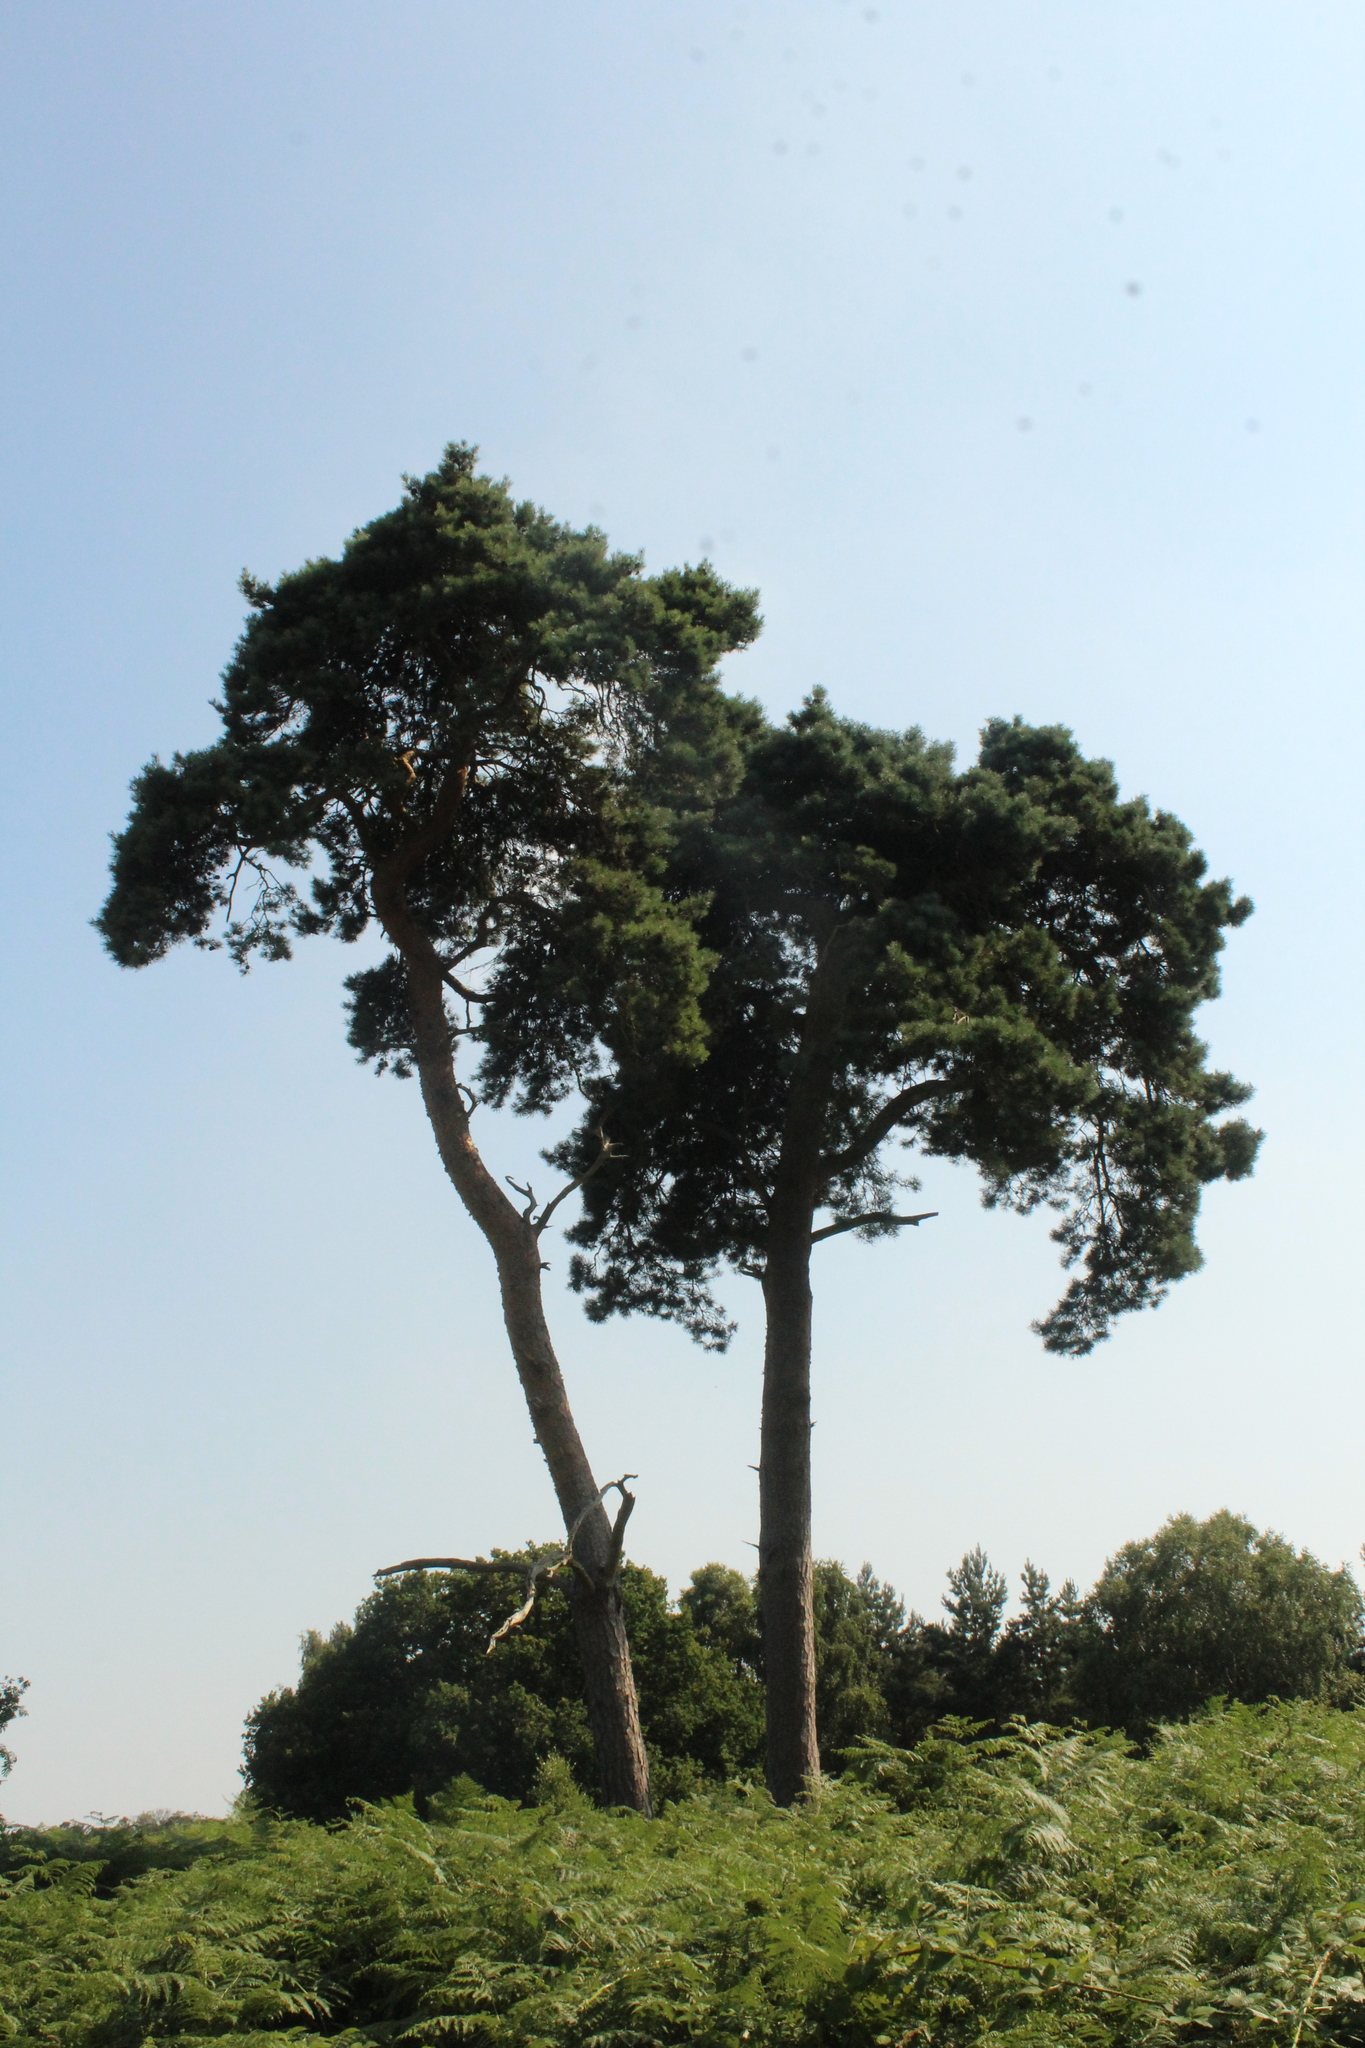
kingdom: Plantae
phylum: Tracheophyta
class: Pinopsida
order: Pinales
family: Pinaceae
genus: Pinus
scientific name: Pinus sylvestris
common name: Scots pine
